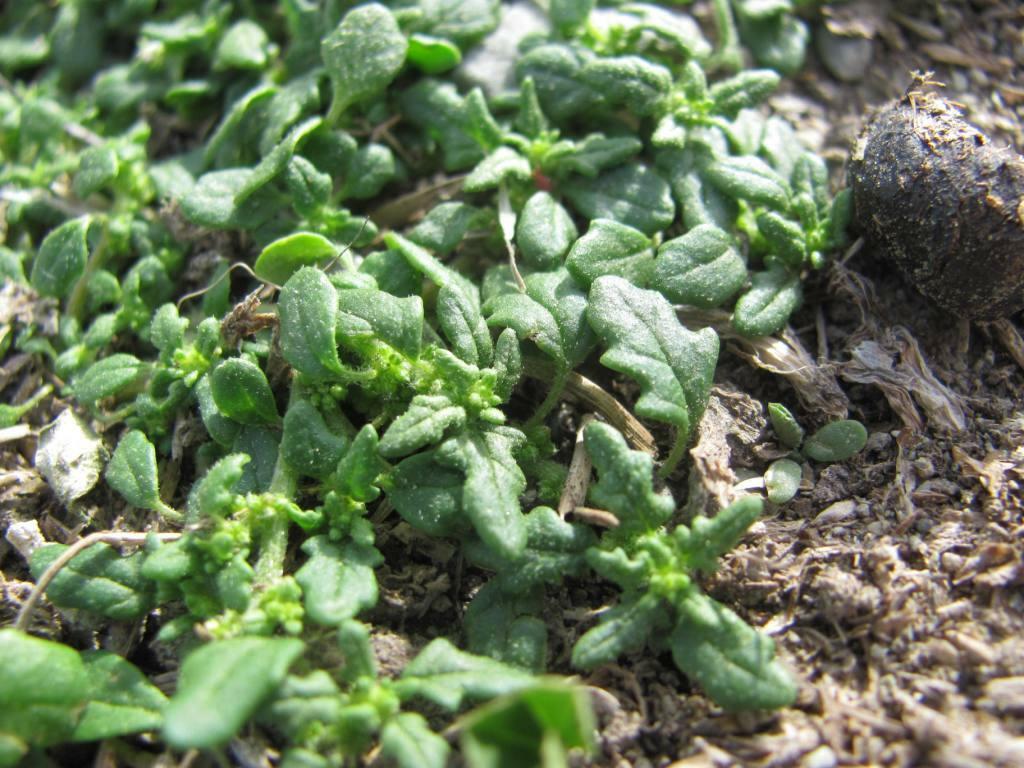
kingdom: Plantae
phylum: Tracheophyta
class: Magnoliopsida
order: Caryophyllales
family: Amaranthaceae
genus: Dysphania
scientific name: Dysphania pumilio
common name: Clammy goosefoot
